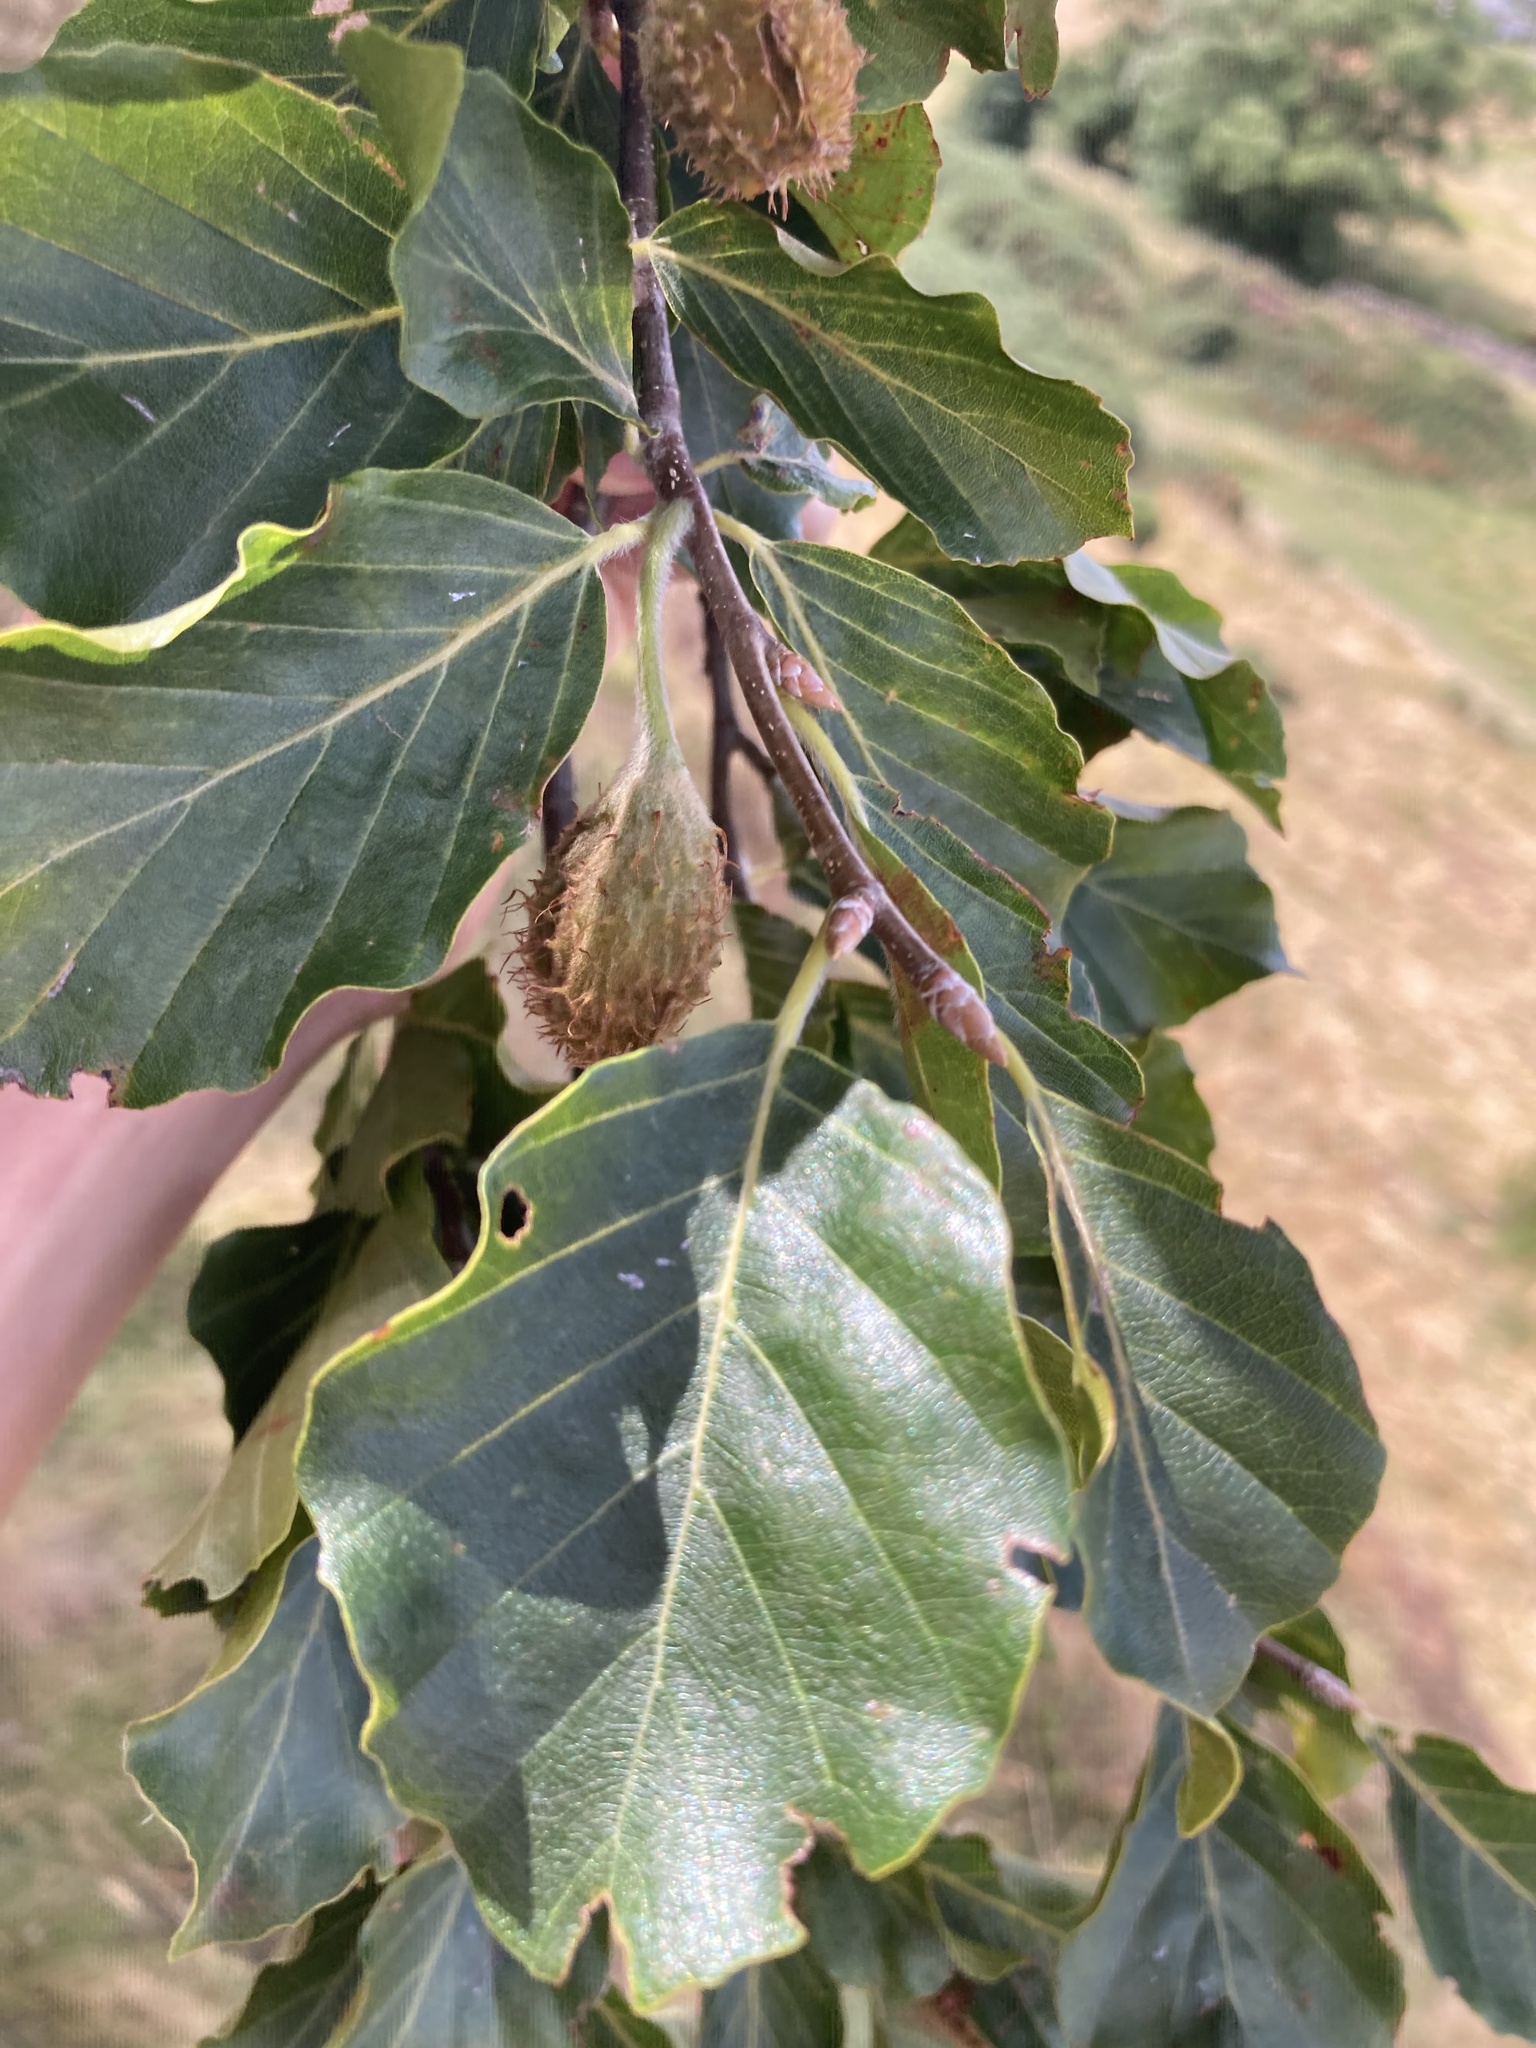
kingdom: Plantae
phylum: Tracheophyta
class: Magnoliopsida
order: Fagales
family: Fagaceae
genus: Fagus
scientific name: Fagus sylvatica
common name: Beech
